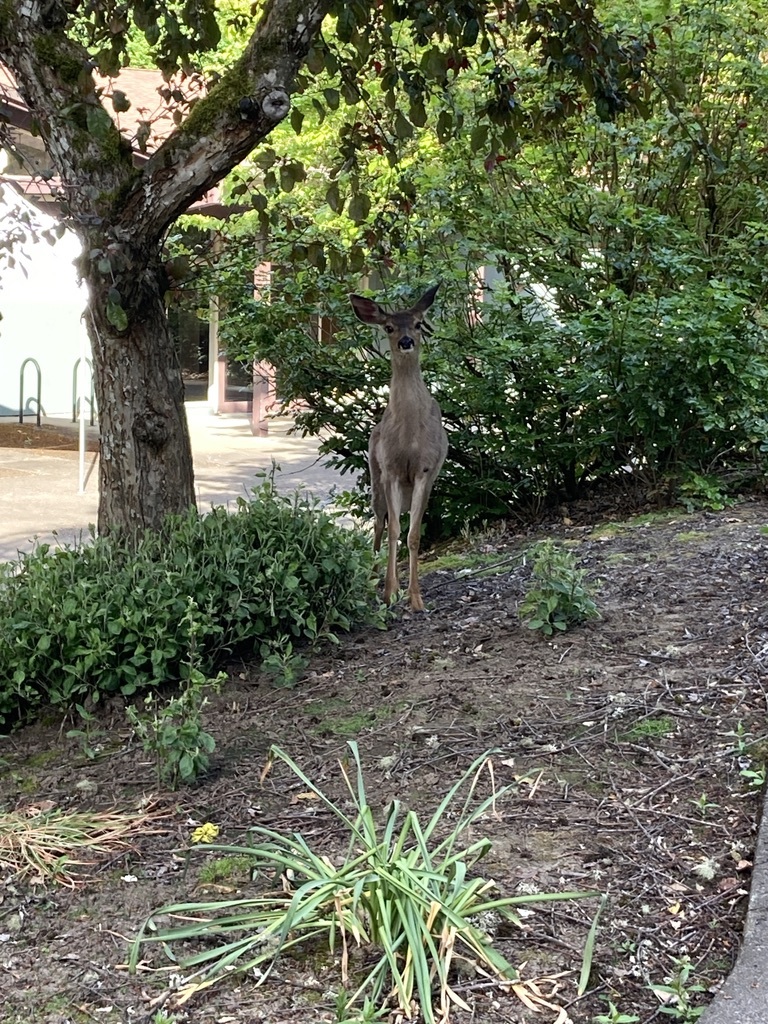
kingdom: Animalia
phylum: Chordata
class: Mammalia
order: Artiodactyla
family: Cervidae
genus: Odocoileus
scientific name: Odocoileus hemionus
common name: Mule deer
